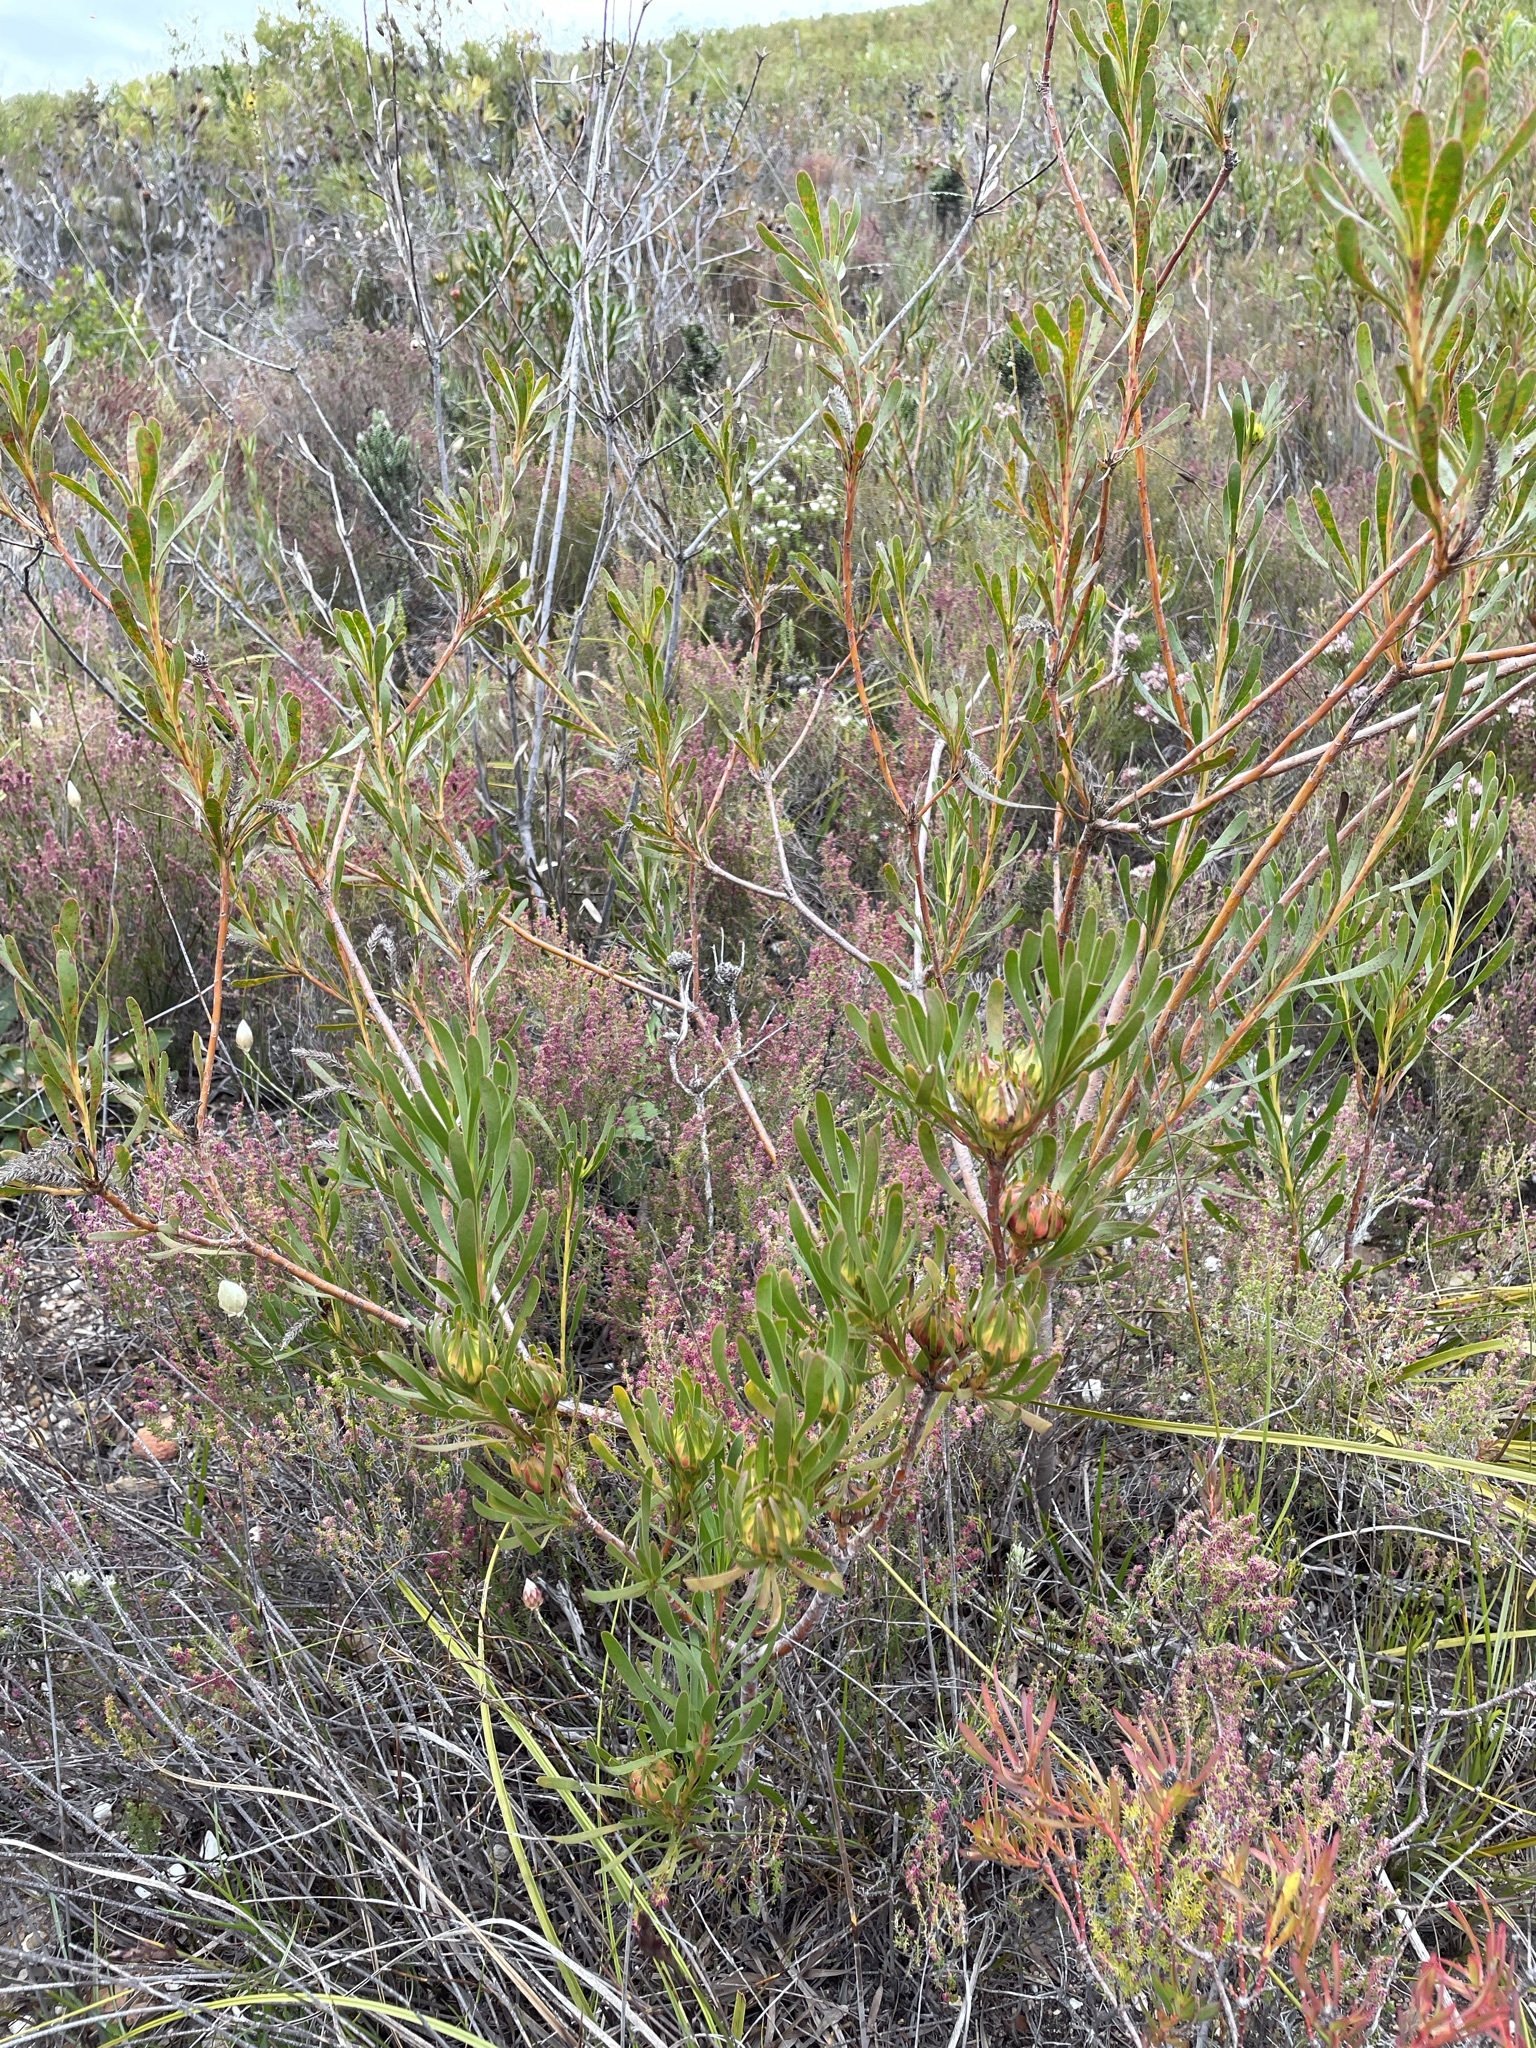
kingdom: Plantae
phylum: Tracheophyta
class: Magnoliopsida
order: Proteales
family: Proteaceae
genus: Aulax
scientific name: Aulax umbellata
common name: Broad-leaf featherbush
